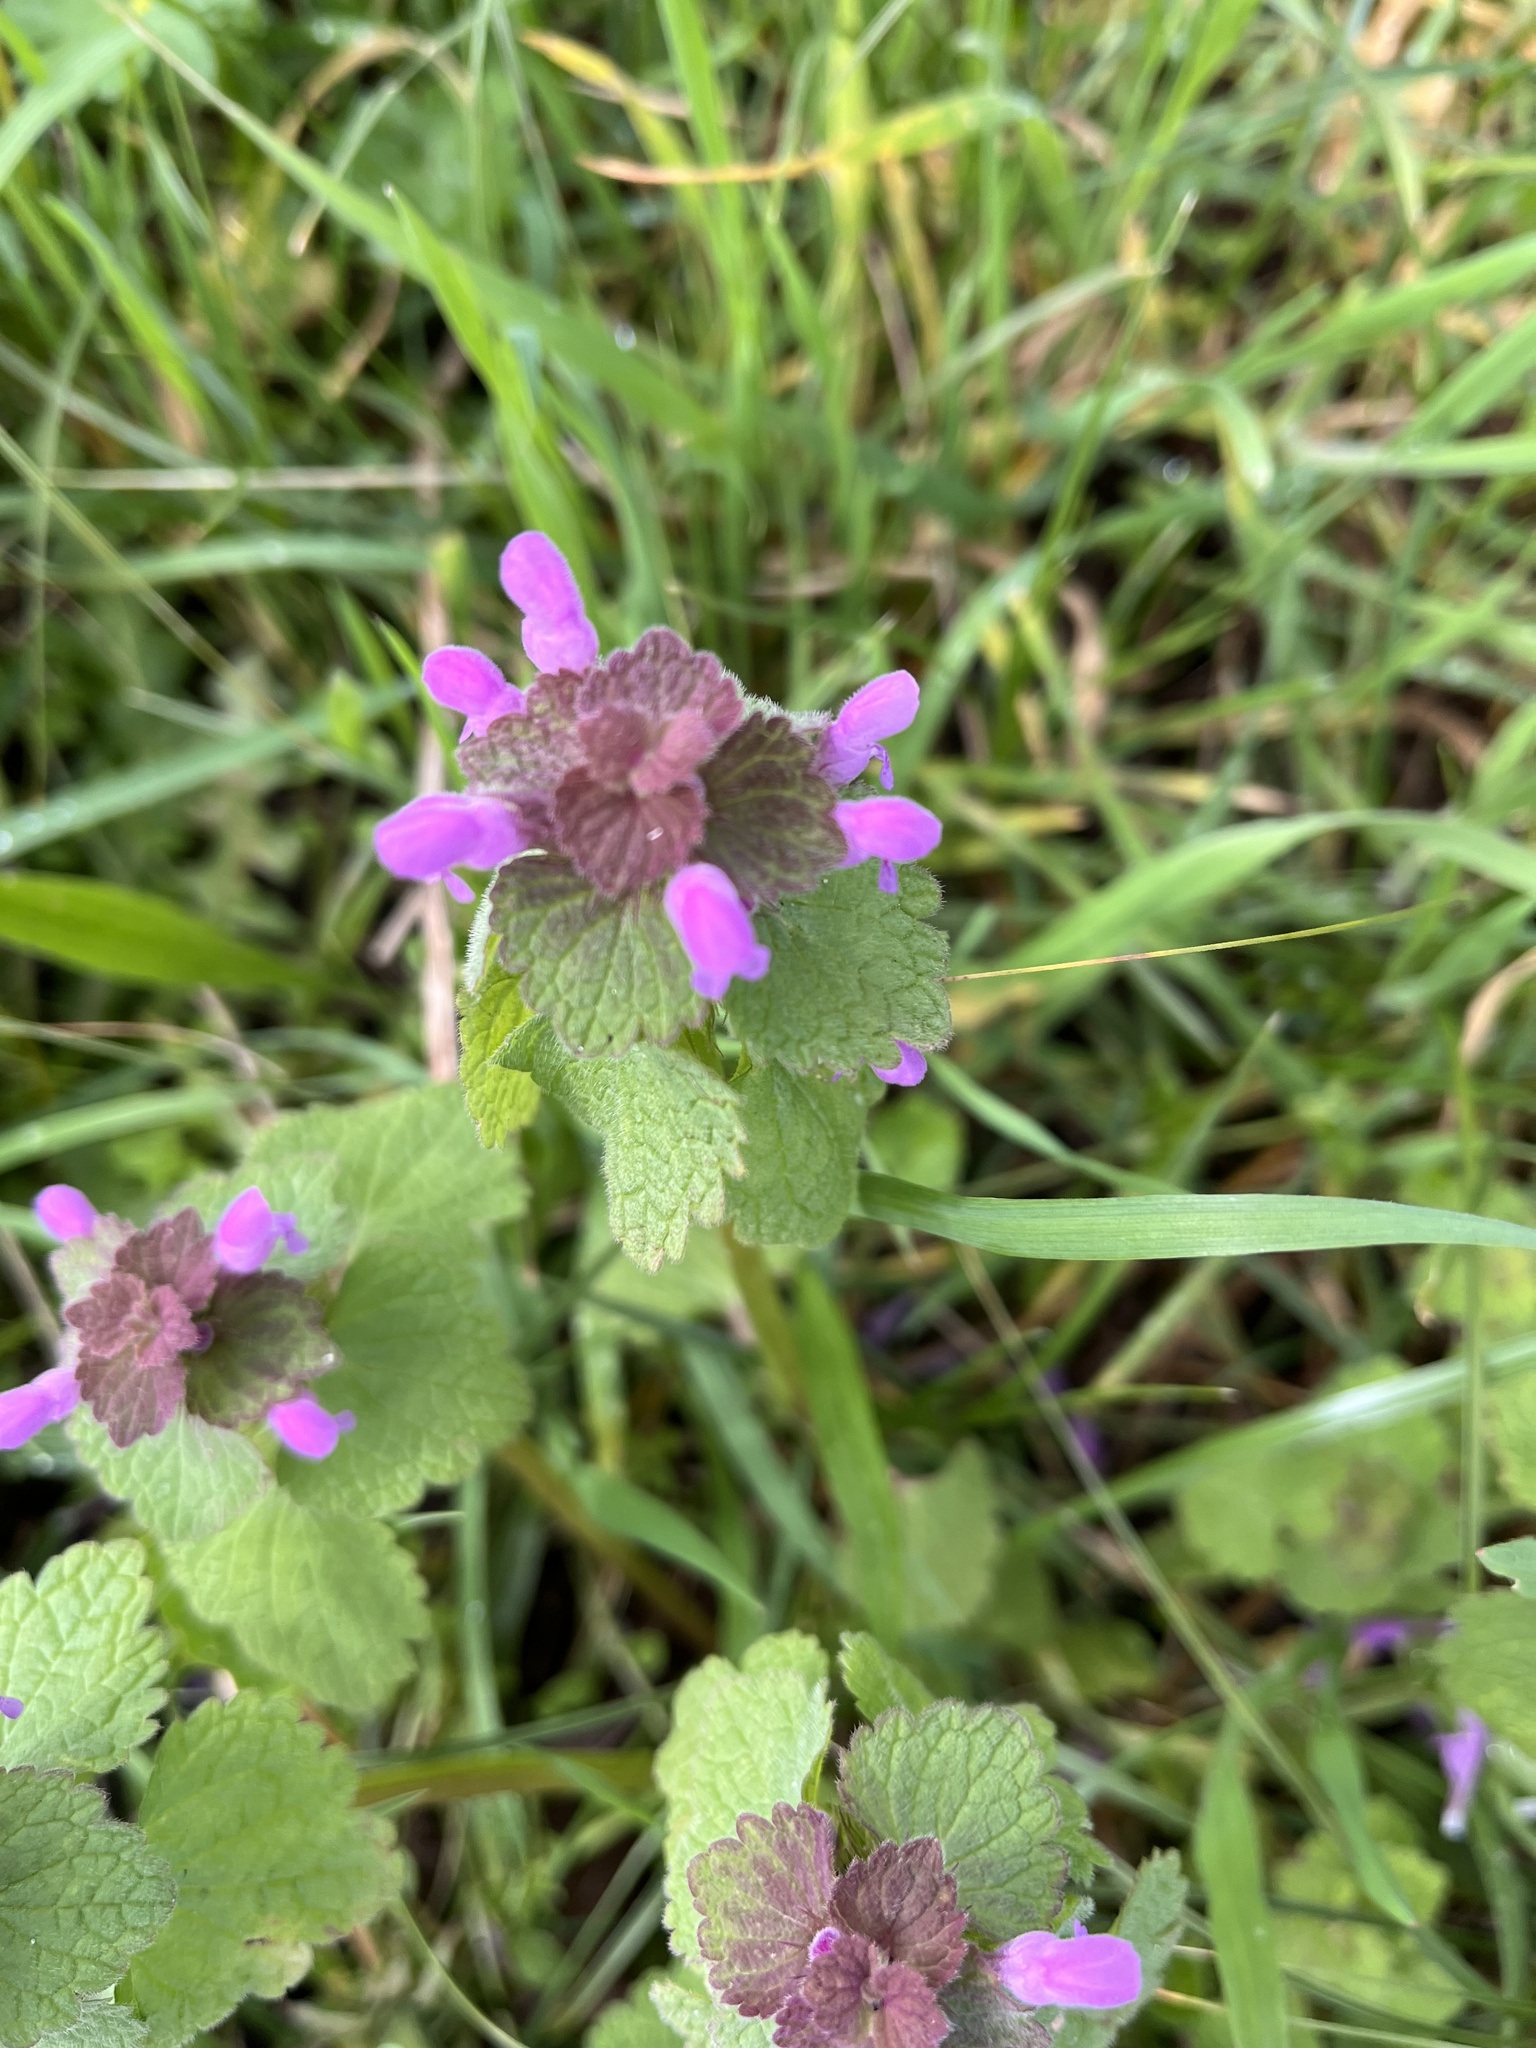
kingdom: Plantae
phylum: Tracheophyta
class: Magnoliopsida
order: Lamiales
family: Lamiaceae
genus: Lamium
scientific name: Lamium purpureum
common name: Red dead-nettle
